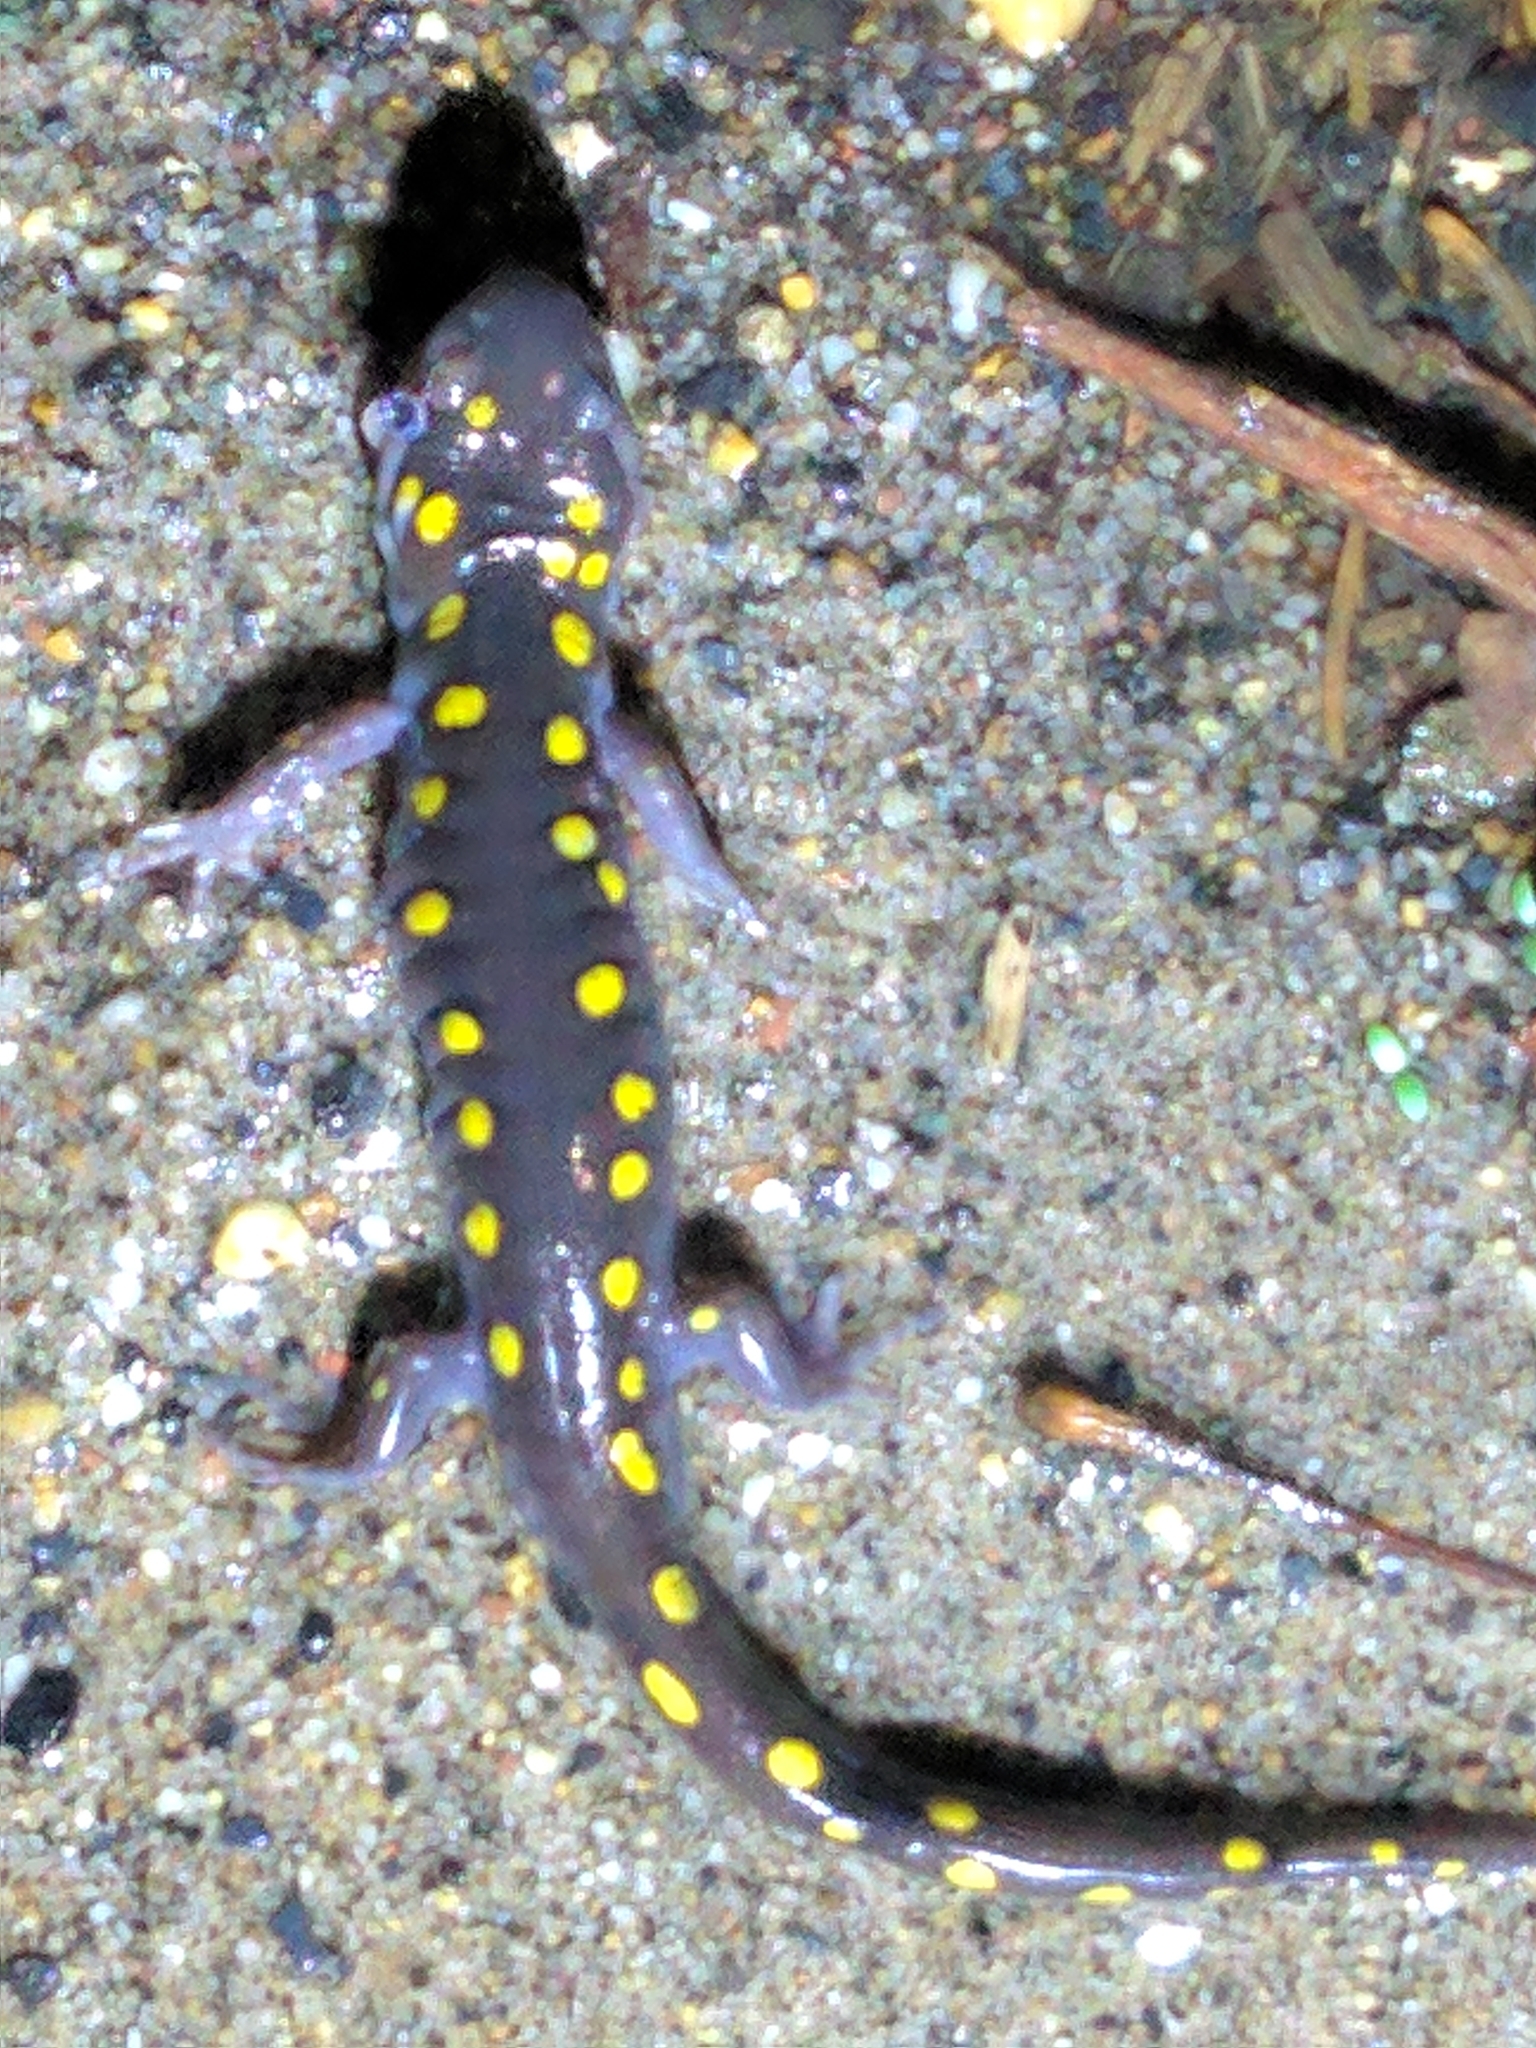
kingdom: Animalia
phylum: Chordata
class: Amphibia
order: Caudata
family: Ambystomatidae
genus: Ambystoma
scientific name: Ambystoma maculatum
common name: Spotted salamander
